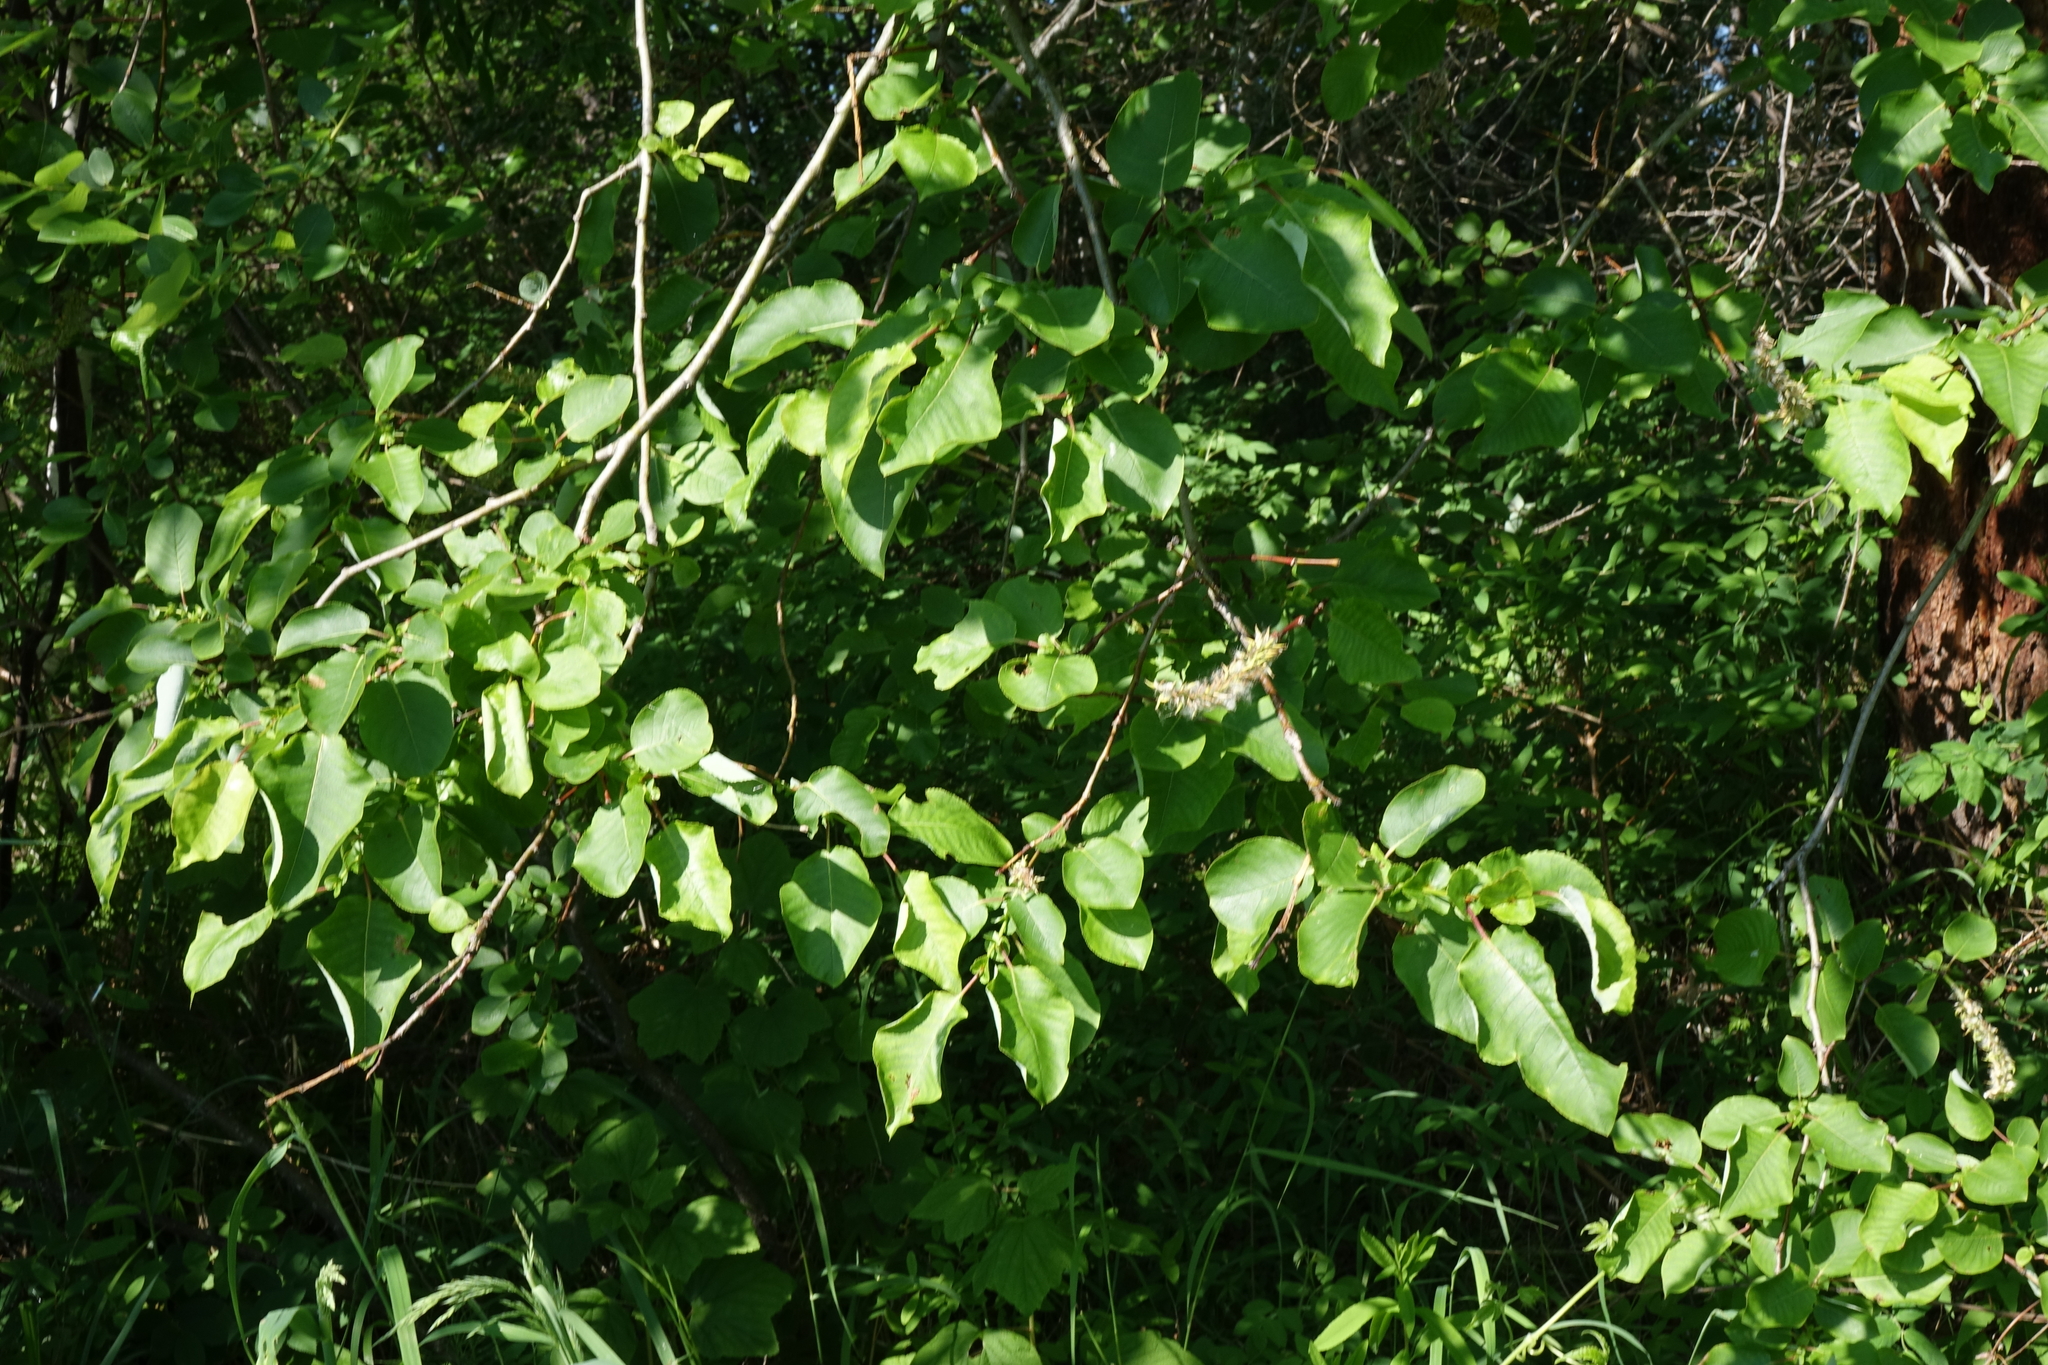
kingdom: Plantae
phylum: Tracheophyta
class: Magnoliopsida
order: Malpighiales
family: Salicaceae
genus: Salix
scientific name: Salix pyrolifolia
